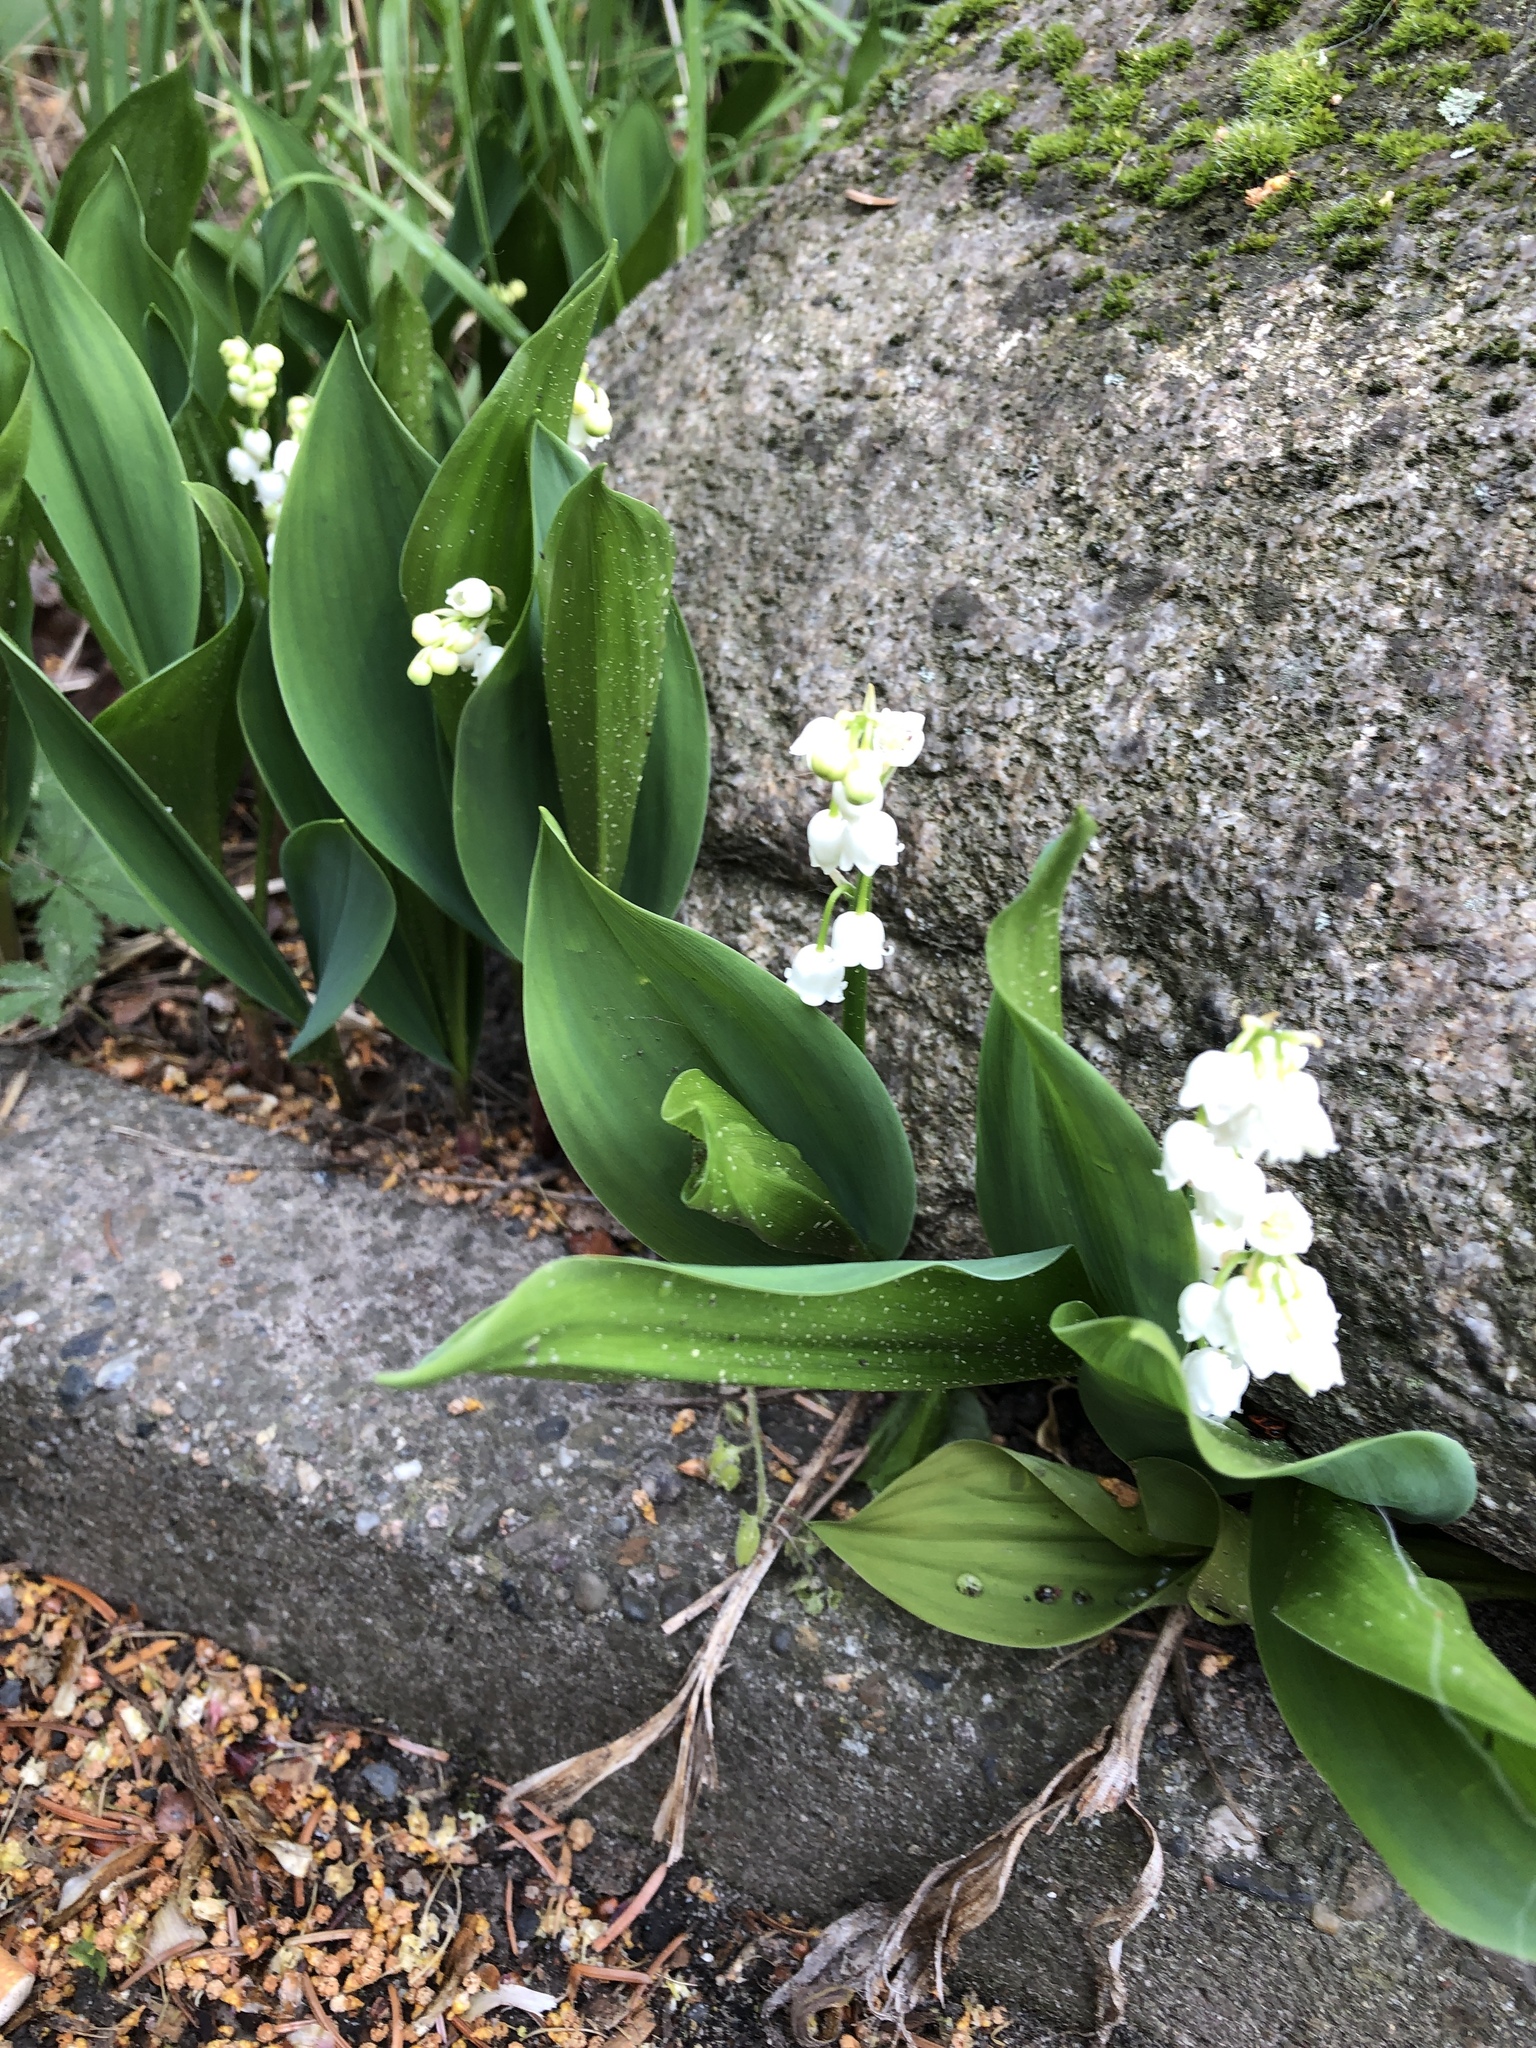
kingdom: Plantae
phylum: Tracheophyta
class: Liliopsida
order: Asparagales
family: Asparagaceae
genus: Convallaria
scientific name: Convallaria majalis
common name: Lily-of-the-valley
